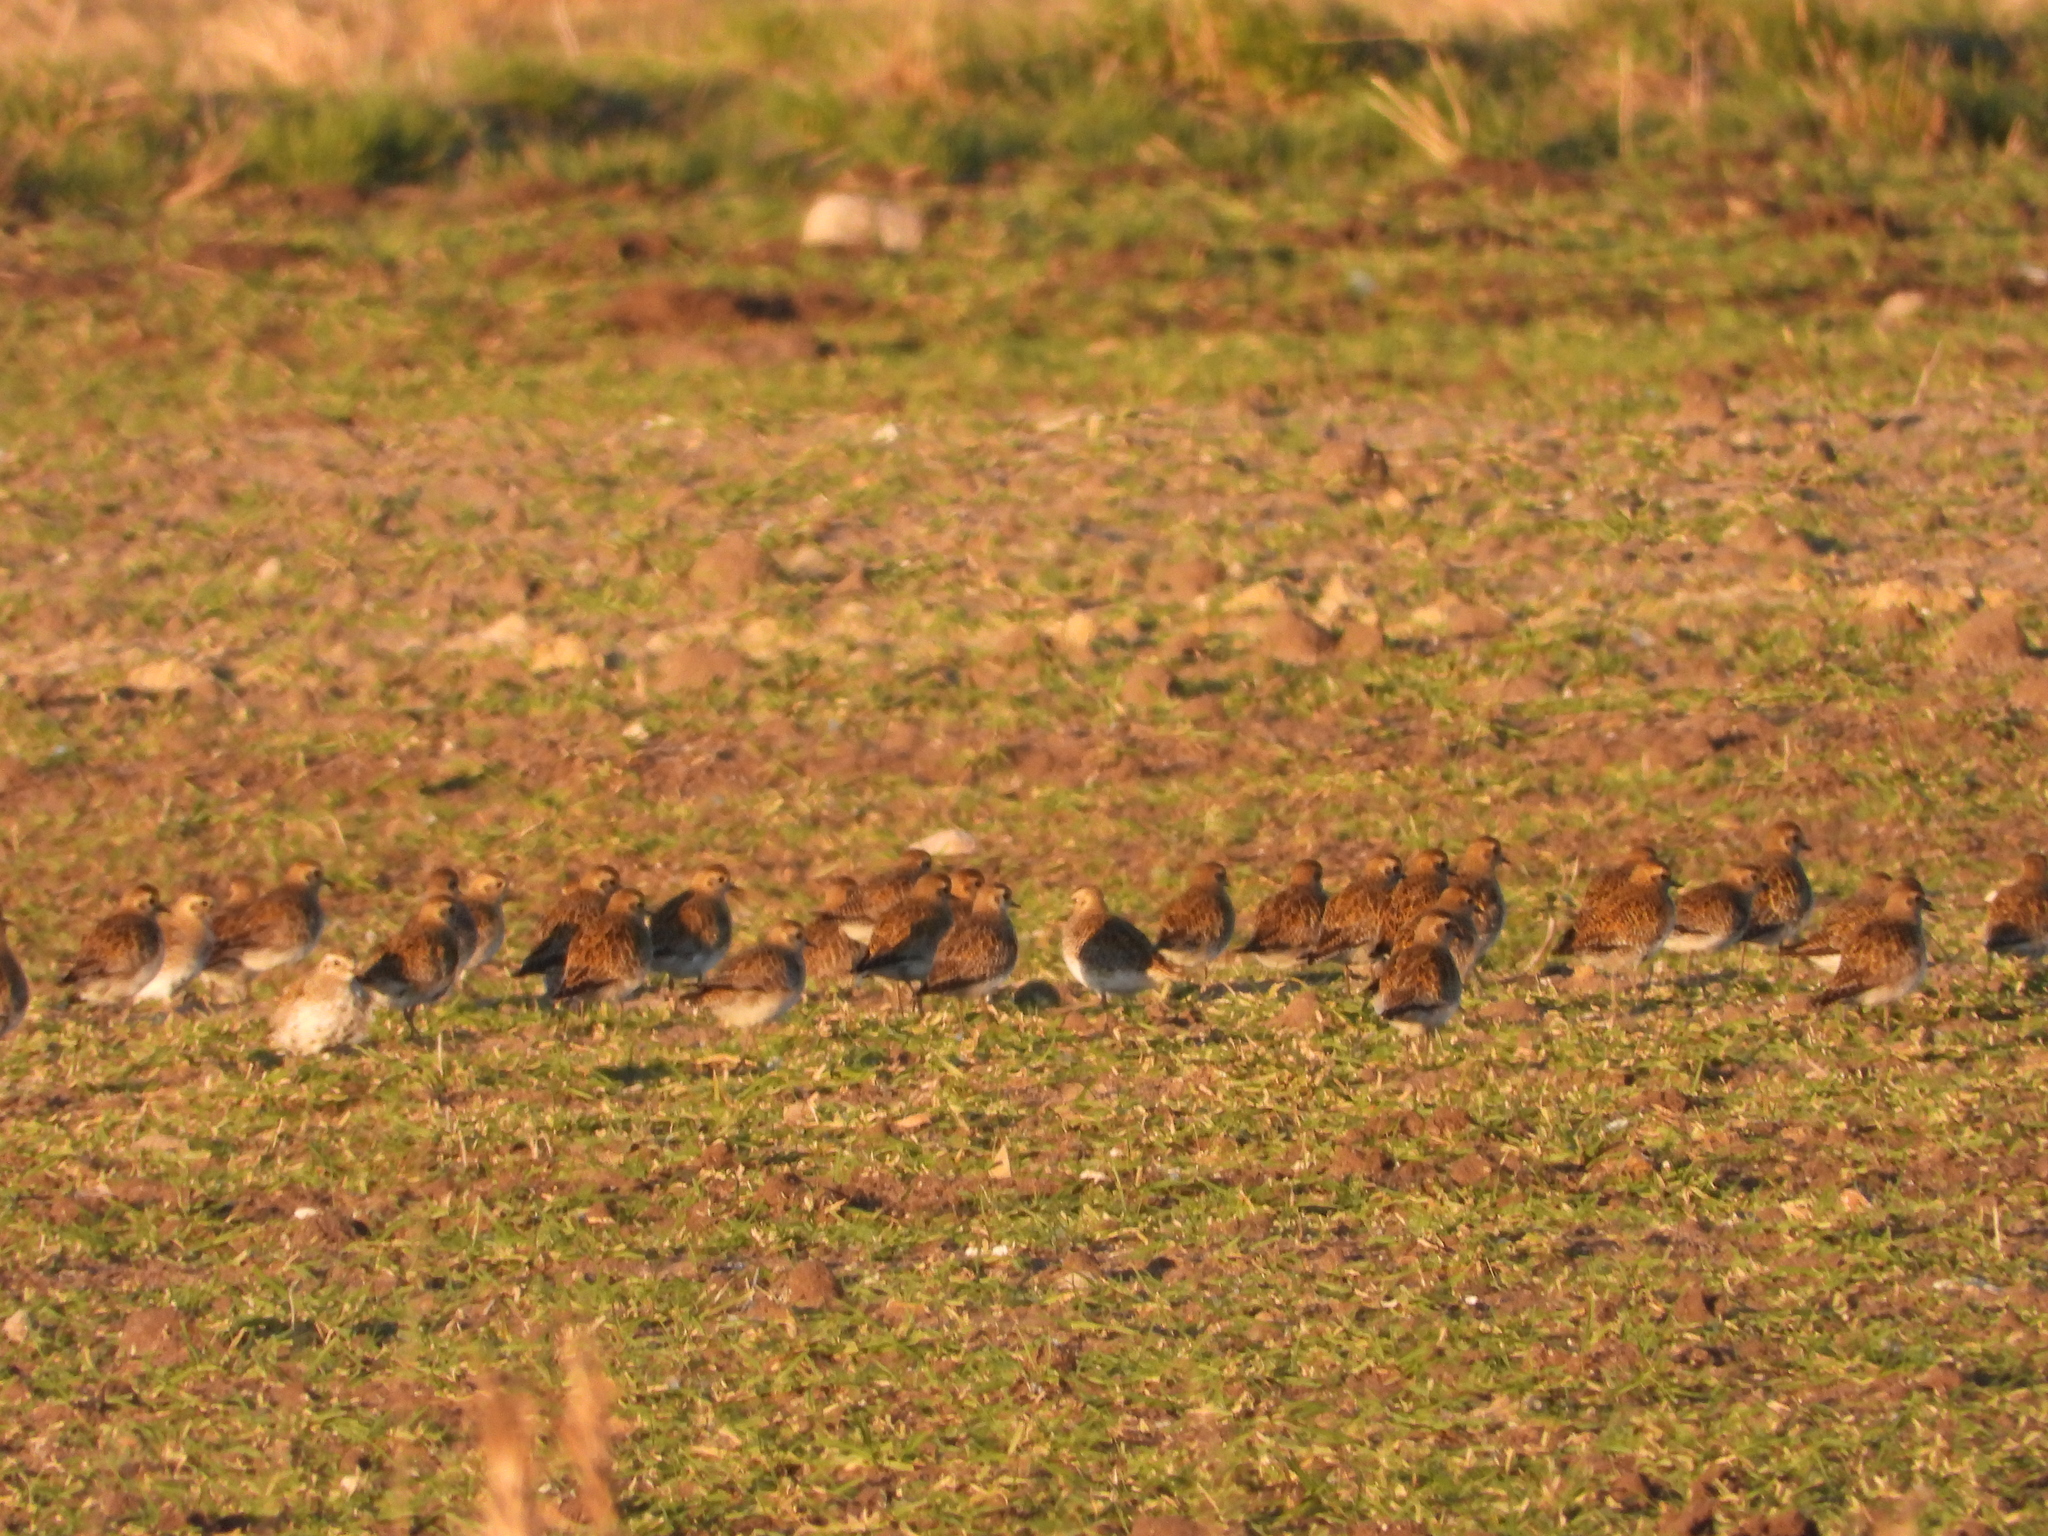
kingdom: Animalia
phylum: Chordata
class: Aves
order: Charadriiformes
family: Charadriidae
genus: Pluvialis
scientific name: Pluvialis apricaria
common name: European golden plover
